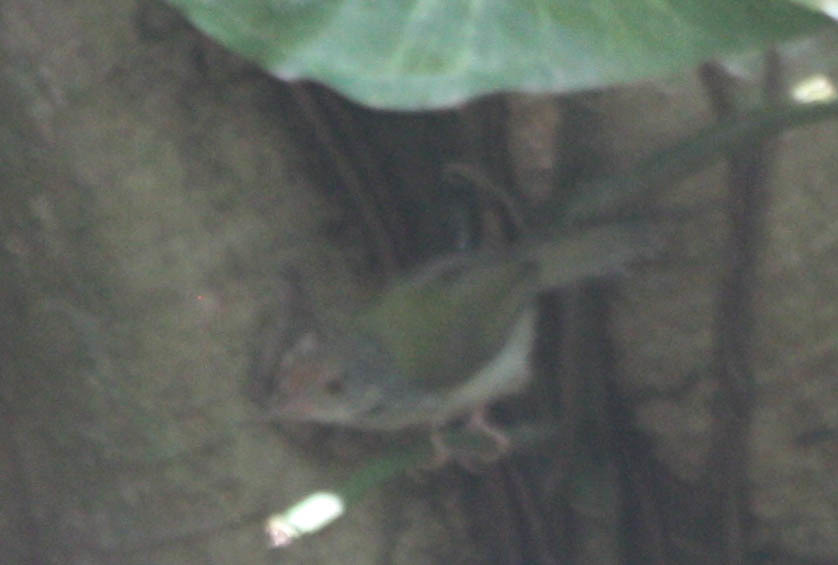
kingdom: Animalia
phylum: Chordata
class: Aves
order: Passeriformes
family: Cisticolidae
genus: Orthotomus
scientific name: Orthotomus sutorius
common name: Common tailorbird
